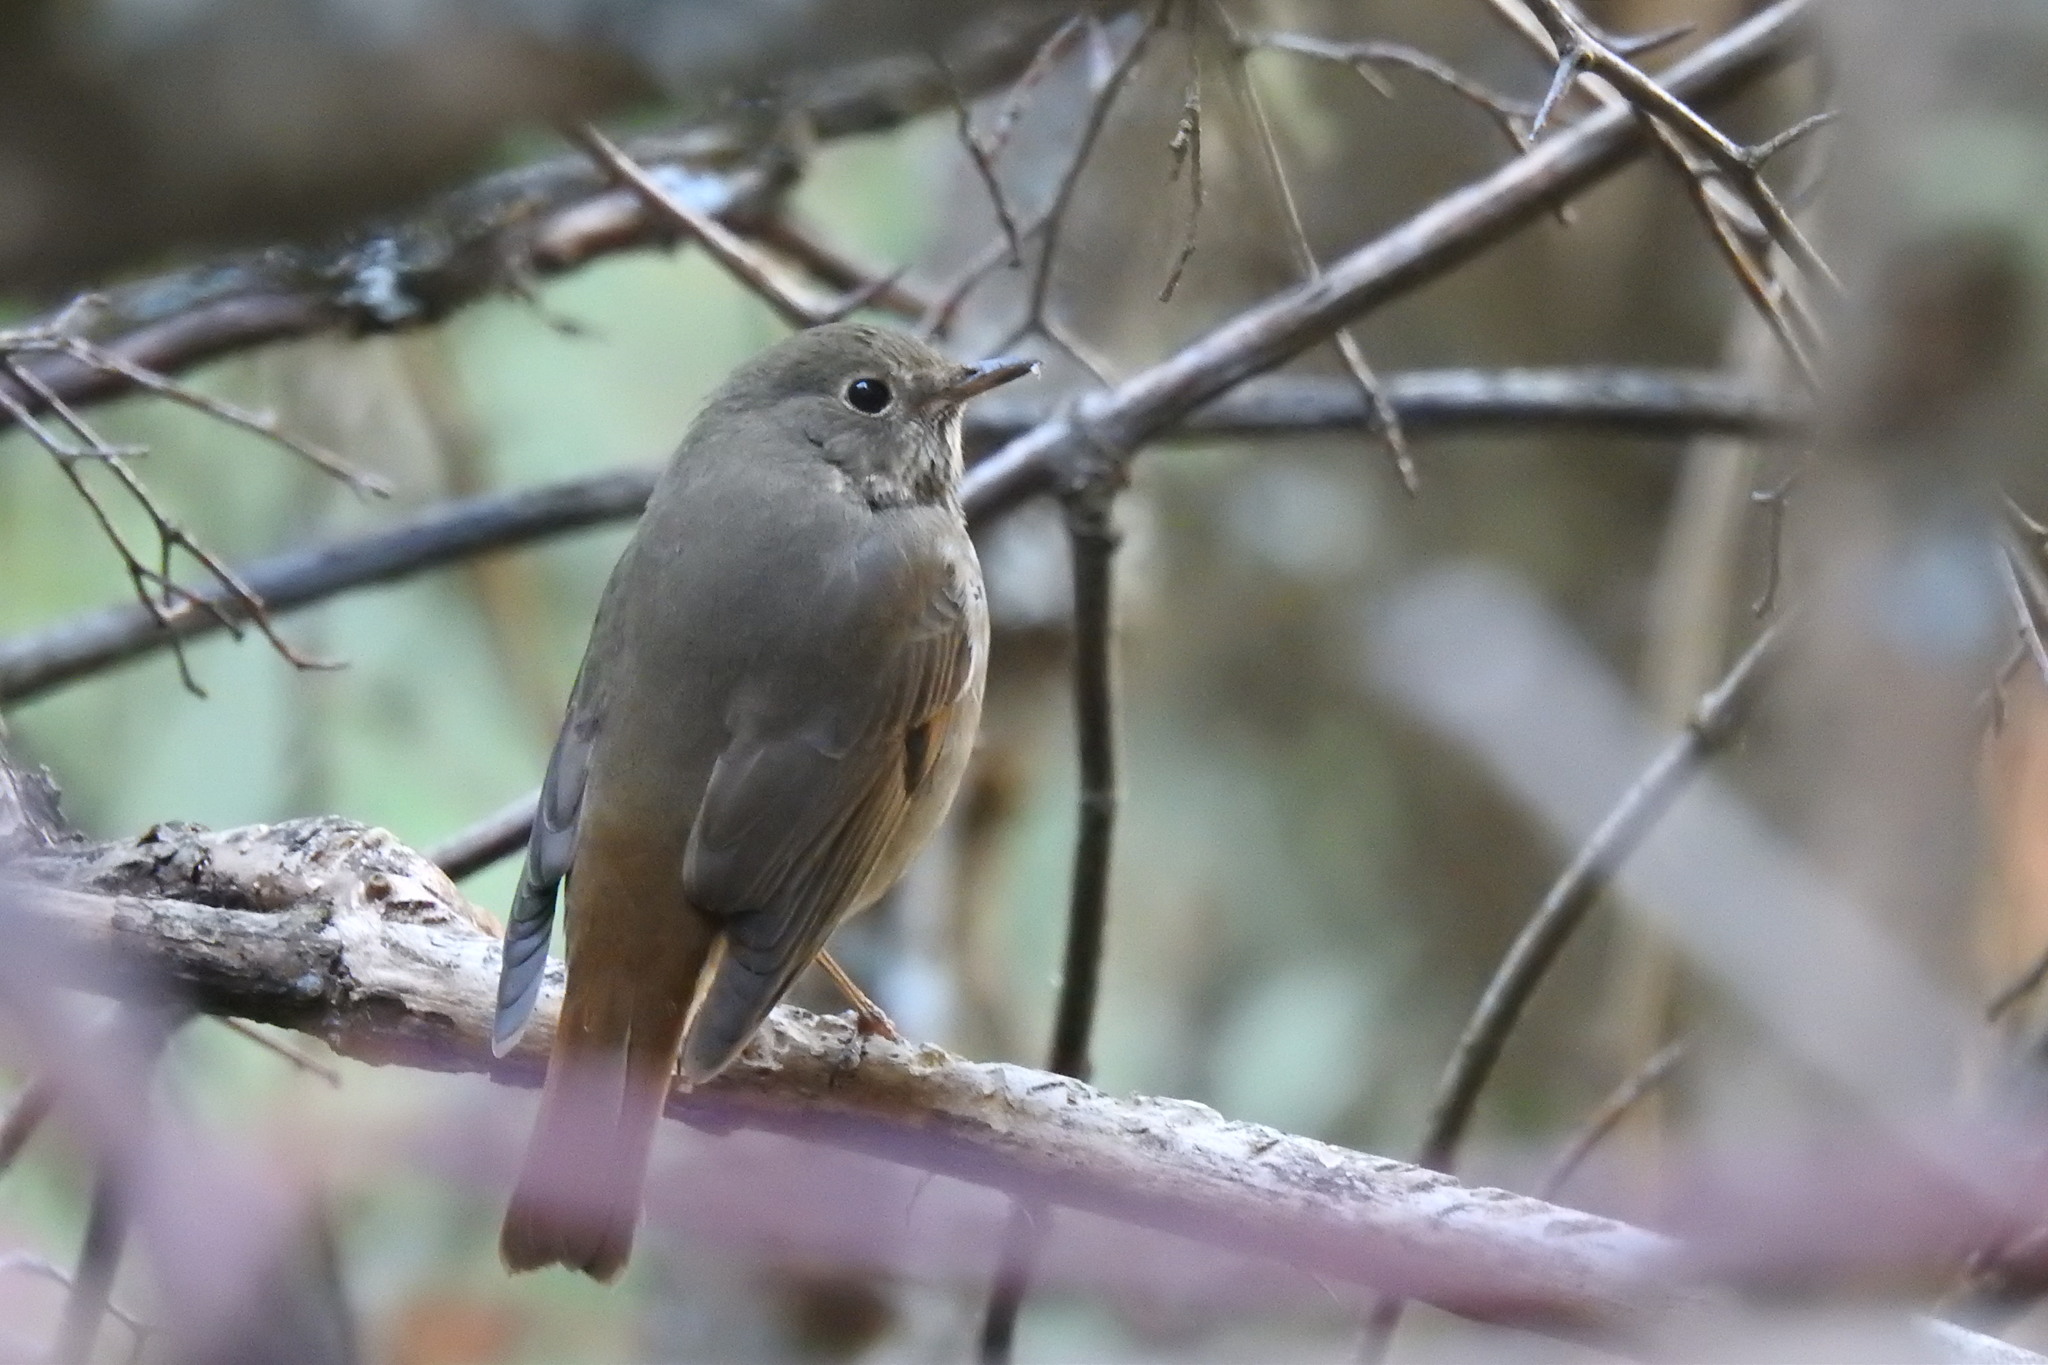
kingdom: Animalia
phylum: Chordata
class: Aves
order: Passeriformes
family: Turdidae
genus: Catharus
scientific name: Catharus guttatus
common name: Hermit thrush
